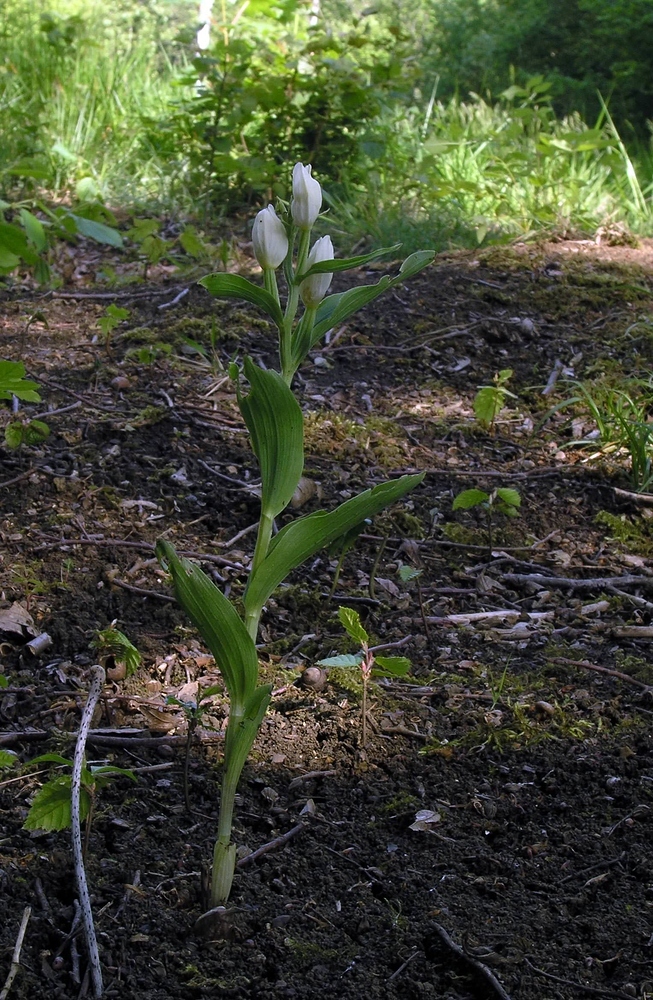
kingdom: Plantae
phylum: Tracheophyta
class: Liliopsida
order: Asparagales
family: Orchidaceae
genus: Cephalanthera
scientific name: Cephalanthera damasonium
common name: White helleborine
